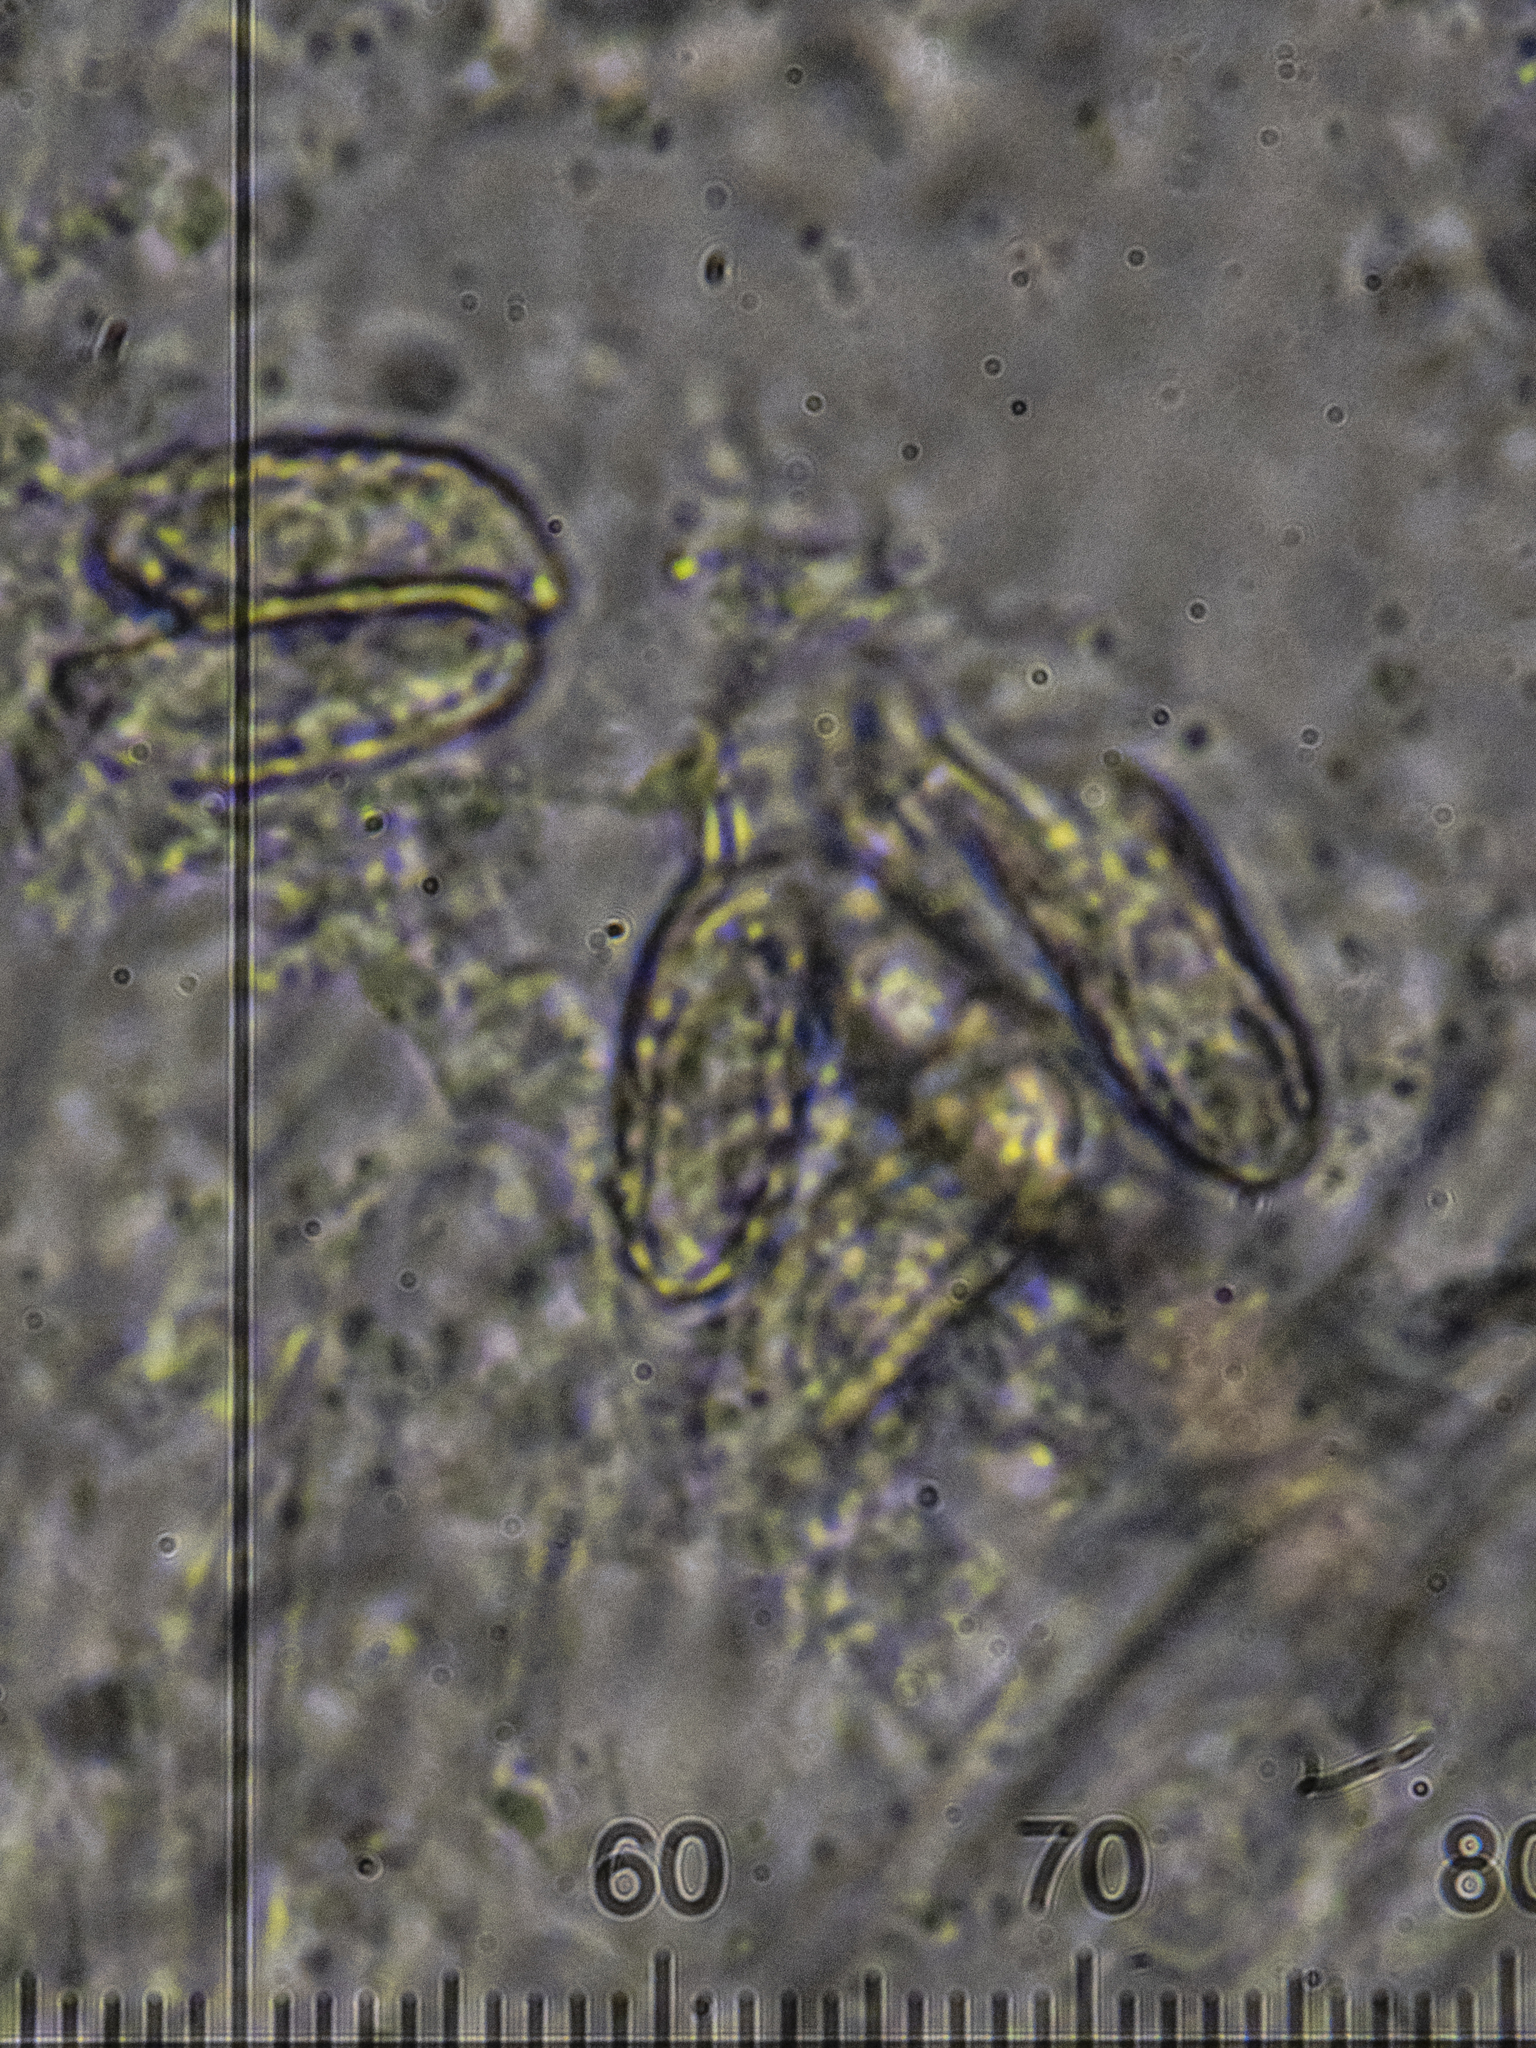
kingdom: Fungi
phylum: Basidiomycota
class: Agaricomycetes
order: Gomphales
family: Gomphaceae
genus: Ramaria
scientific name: Ramaria flavescens
